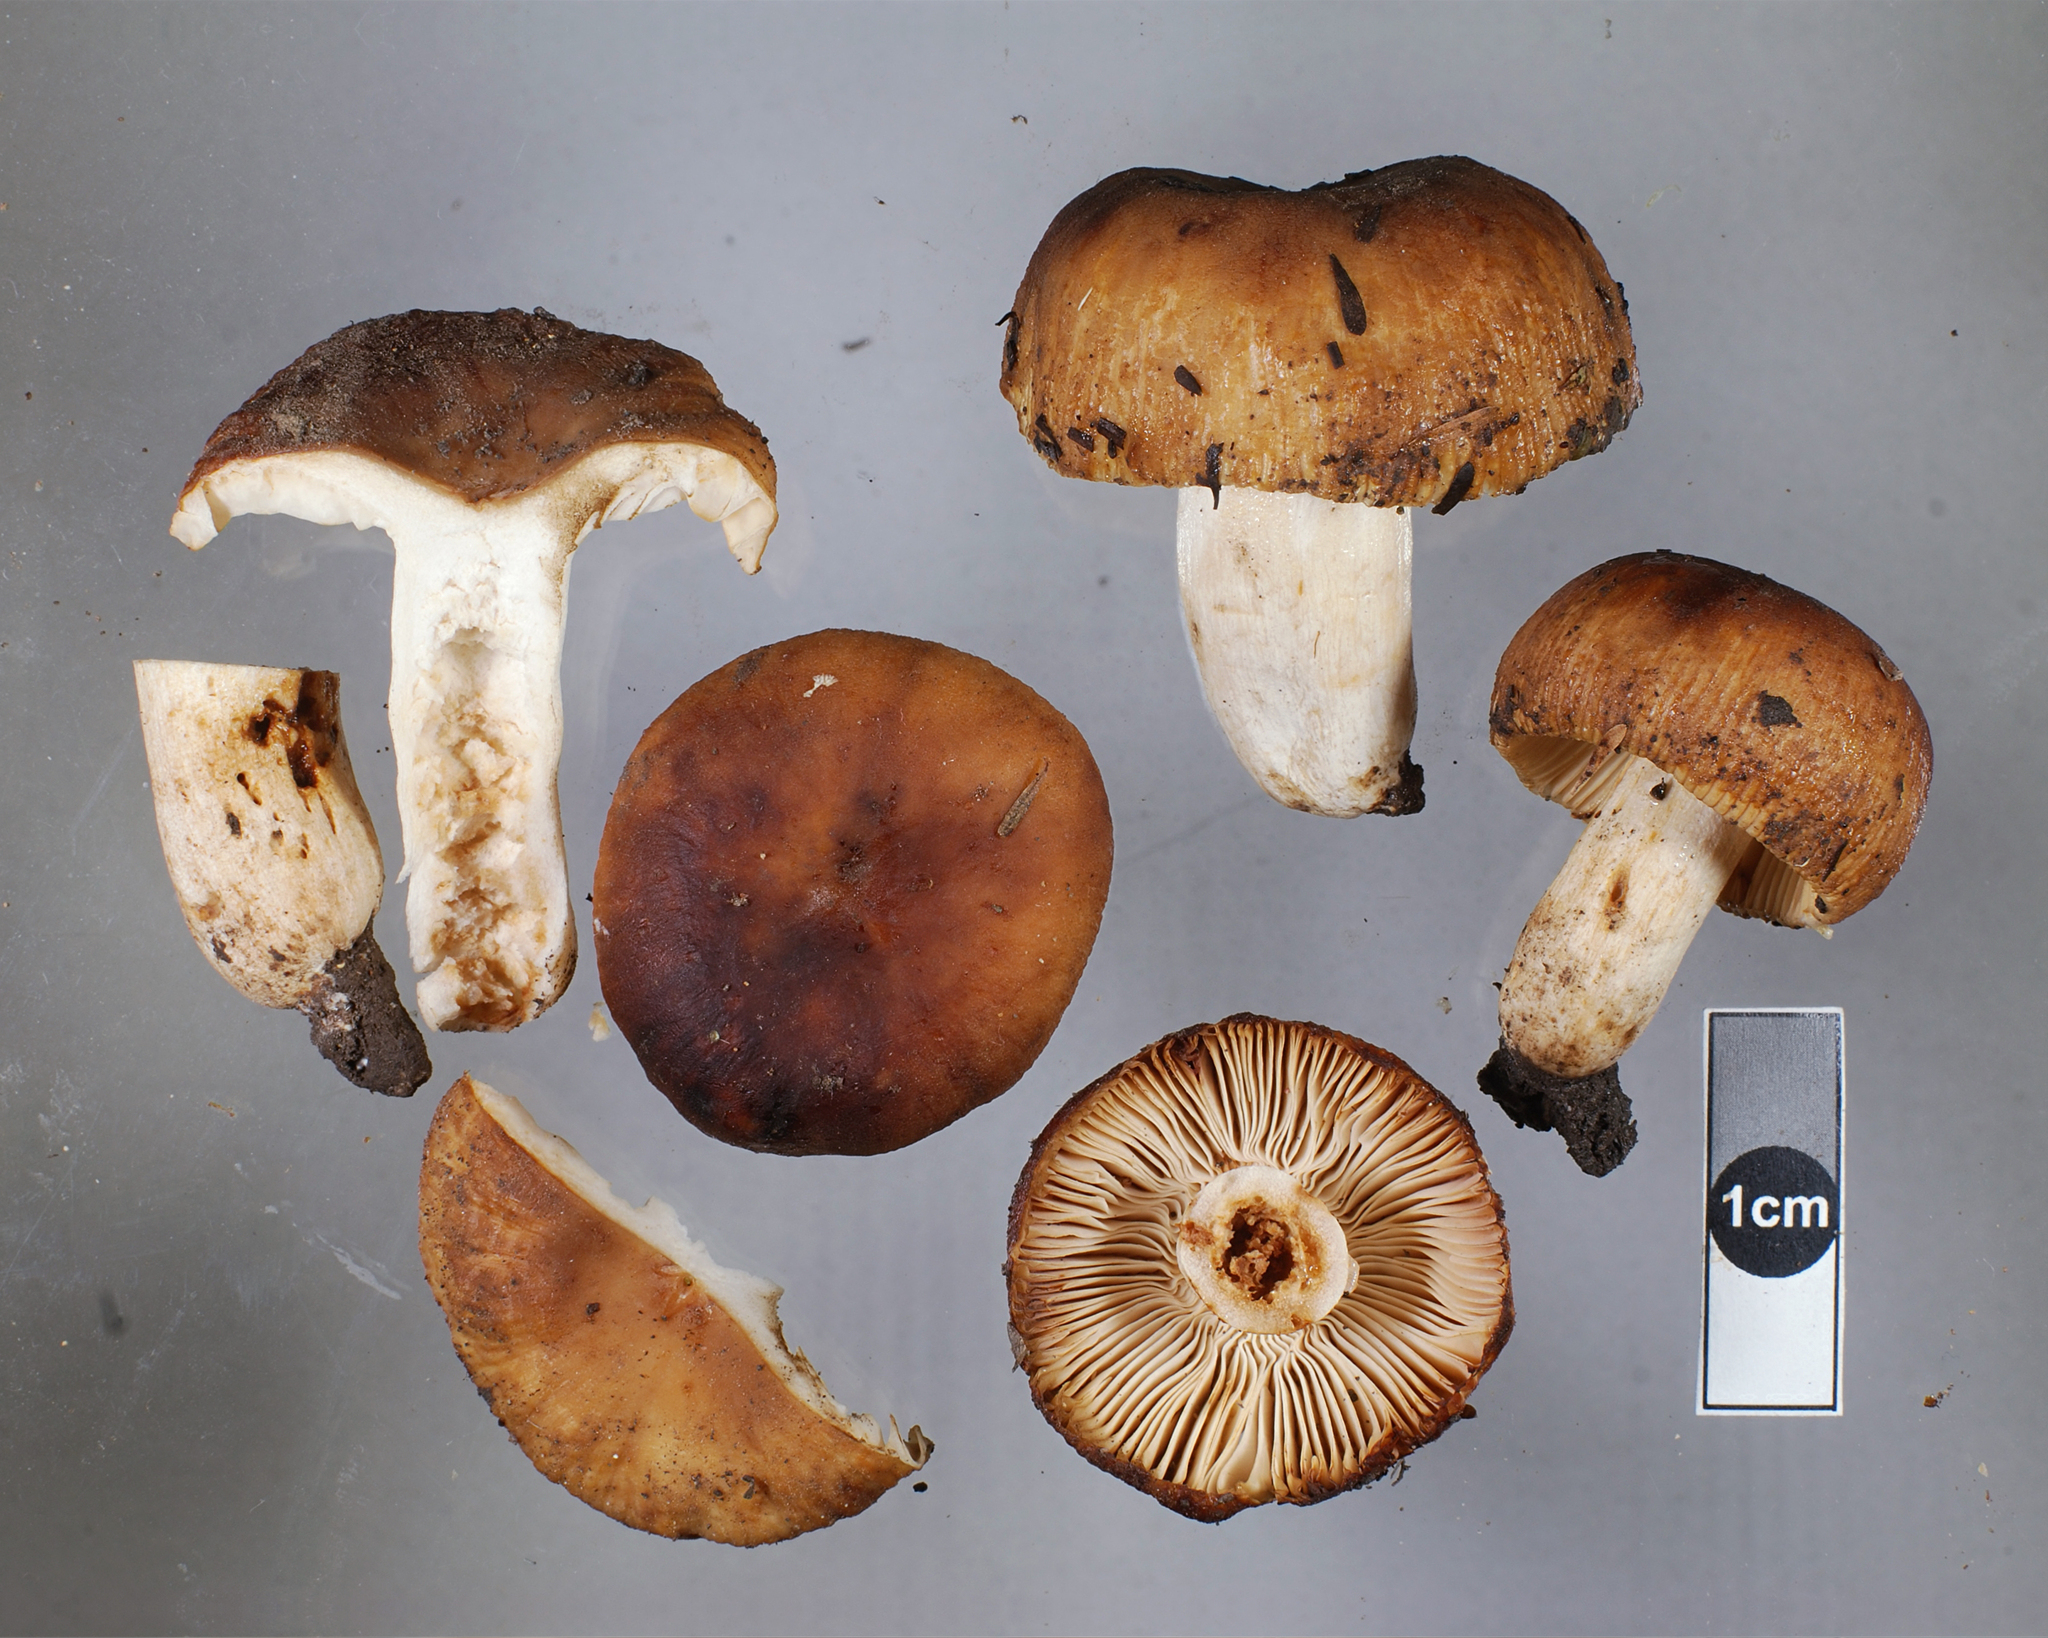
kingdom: Fungi
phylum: Basidiomycota
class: Agaricomycetes
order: Russulales
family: Russulaceae
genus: Russula
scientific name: Russula novae-zelandiae
